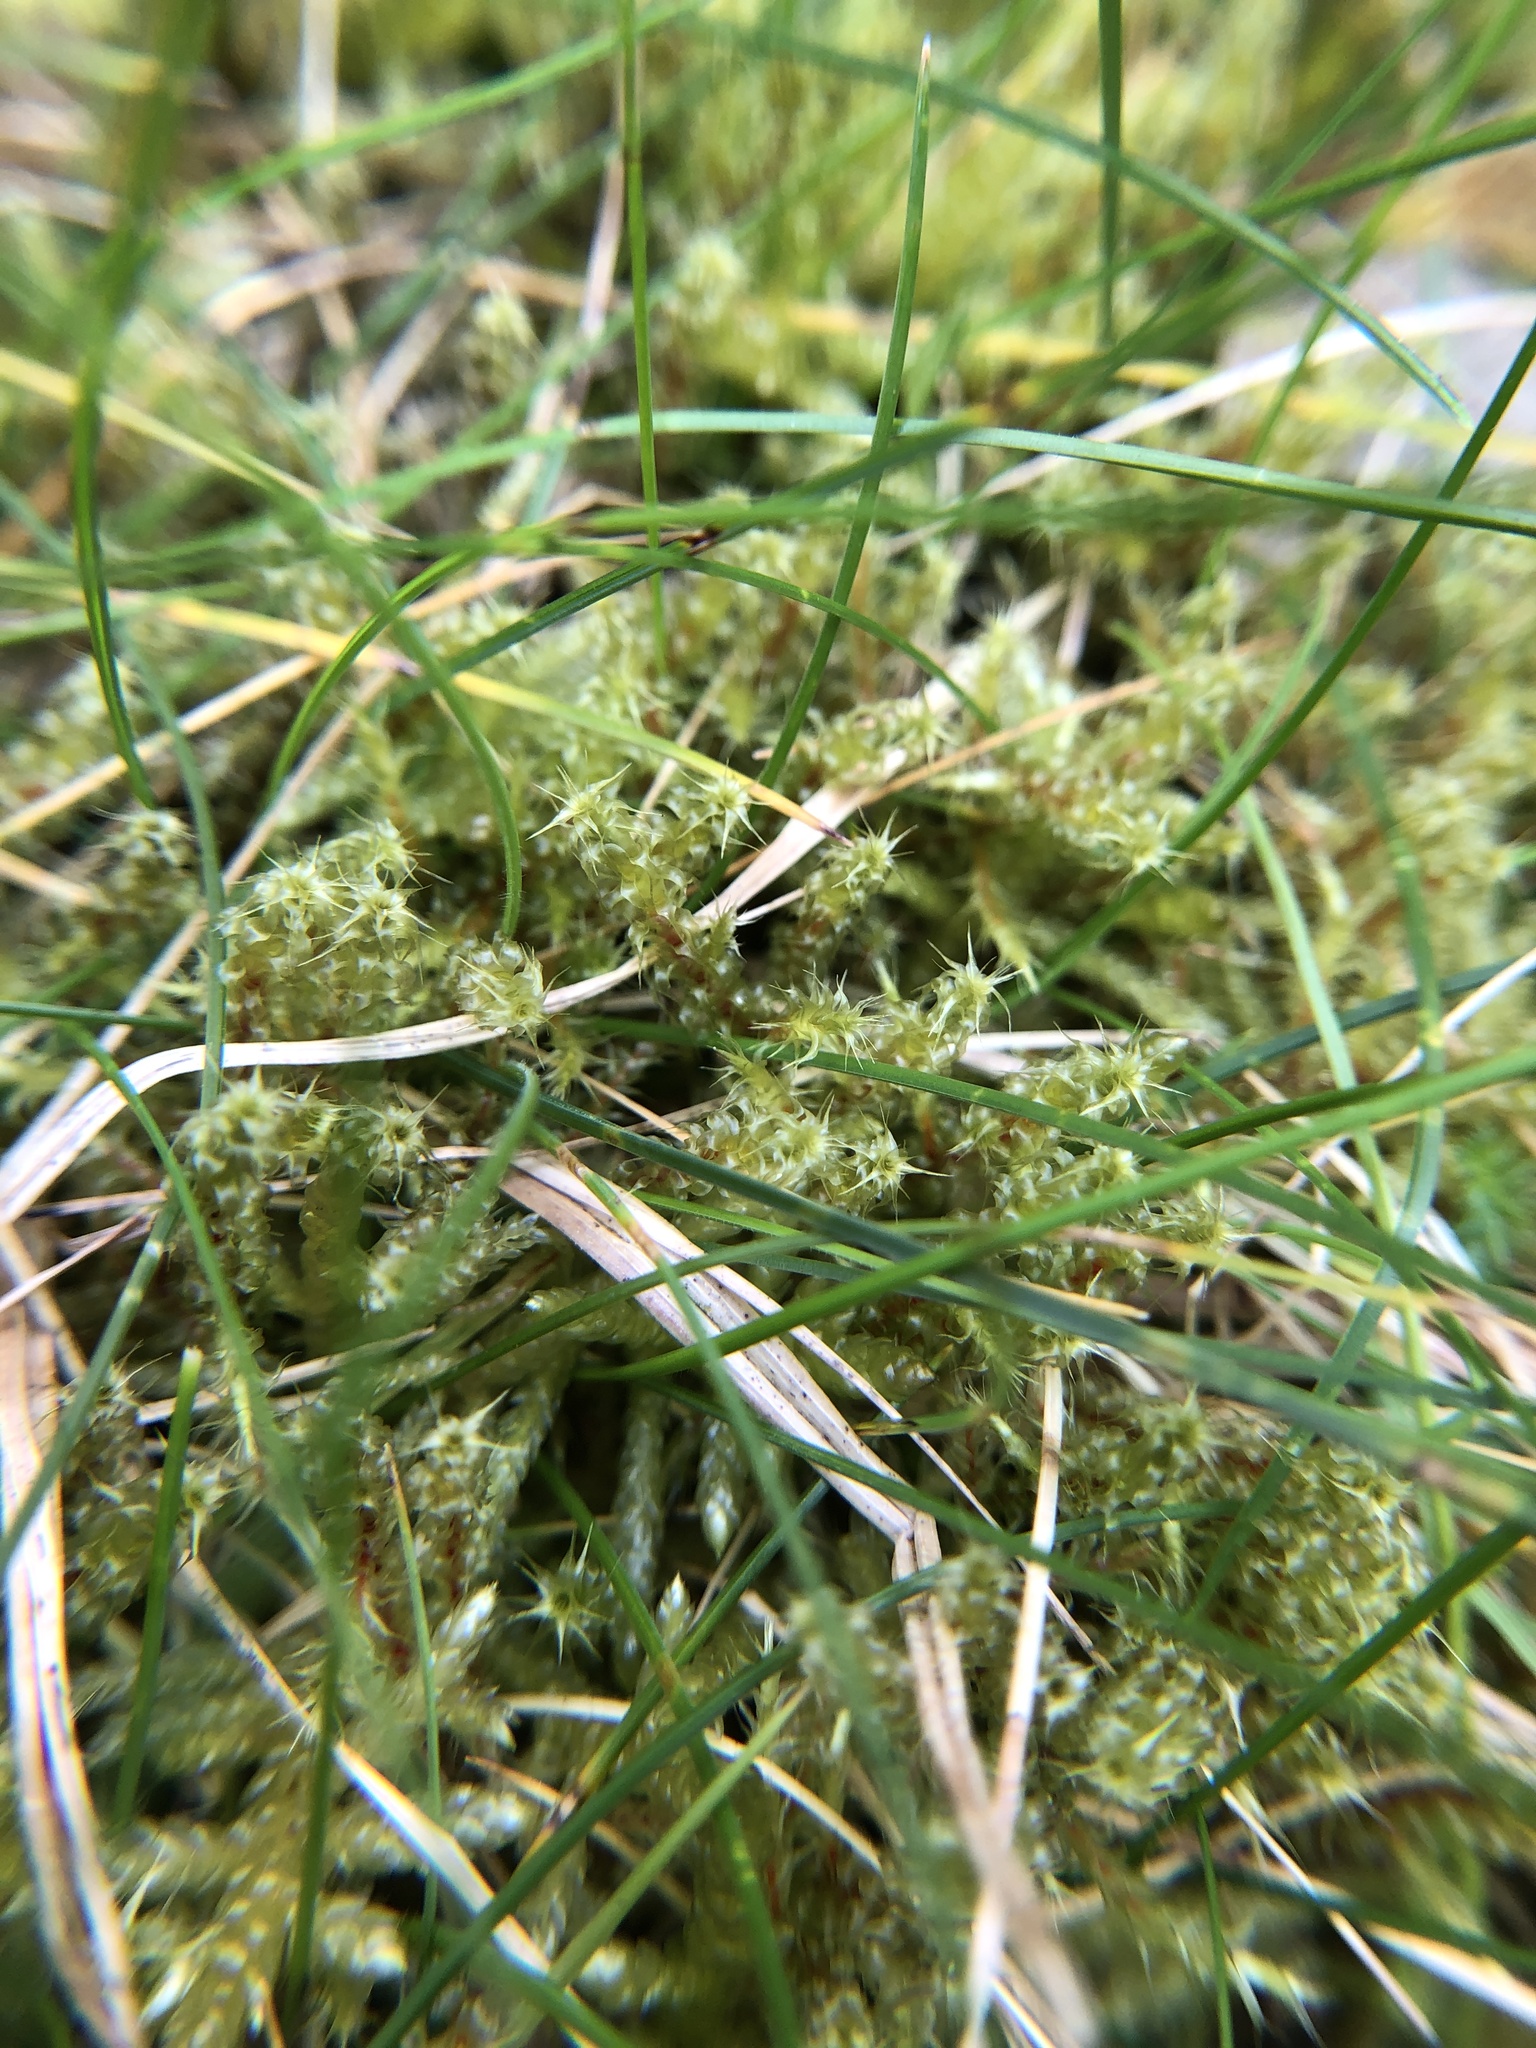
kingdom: Plantae
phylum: Bryophyta
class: Bryopsida
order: Hypnales
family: Hylocomiaceae
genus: Rhytidiadelphus
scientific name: Rhytidiadelphus squarrosus
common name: Springy turf-moss
